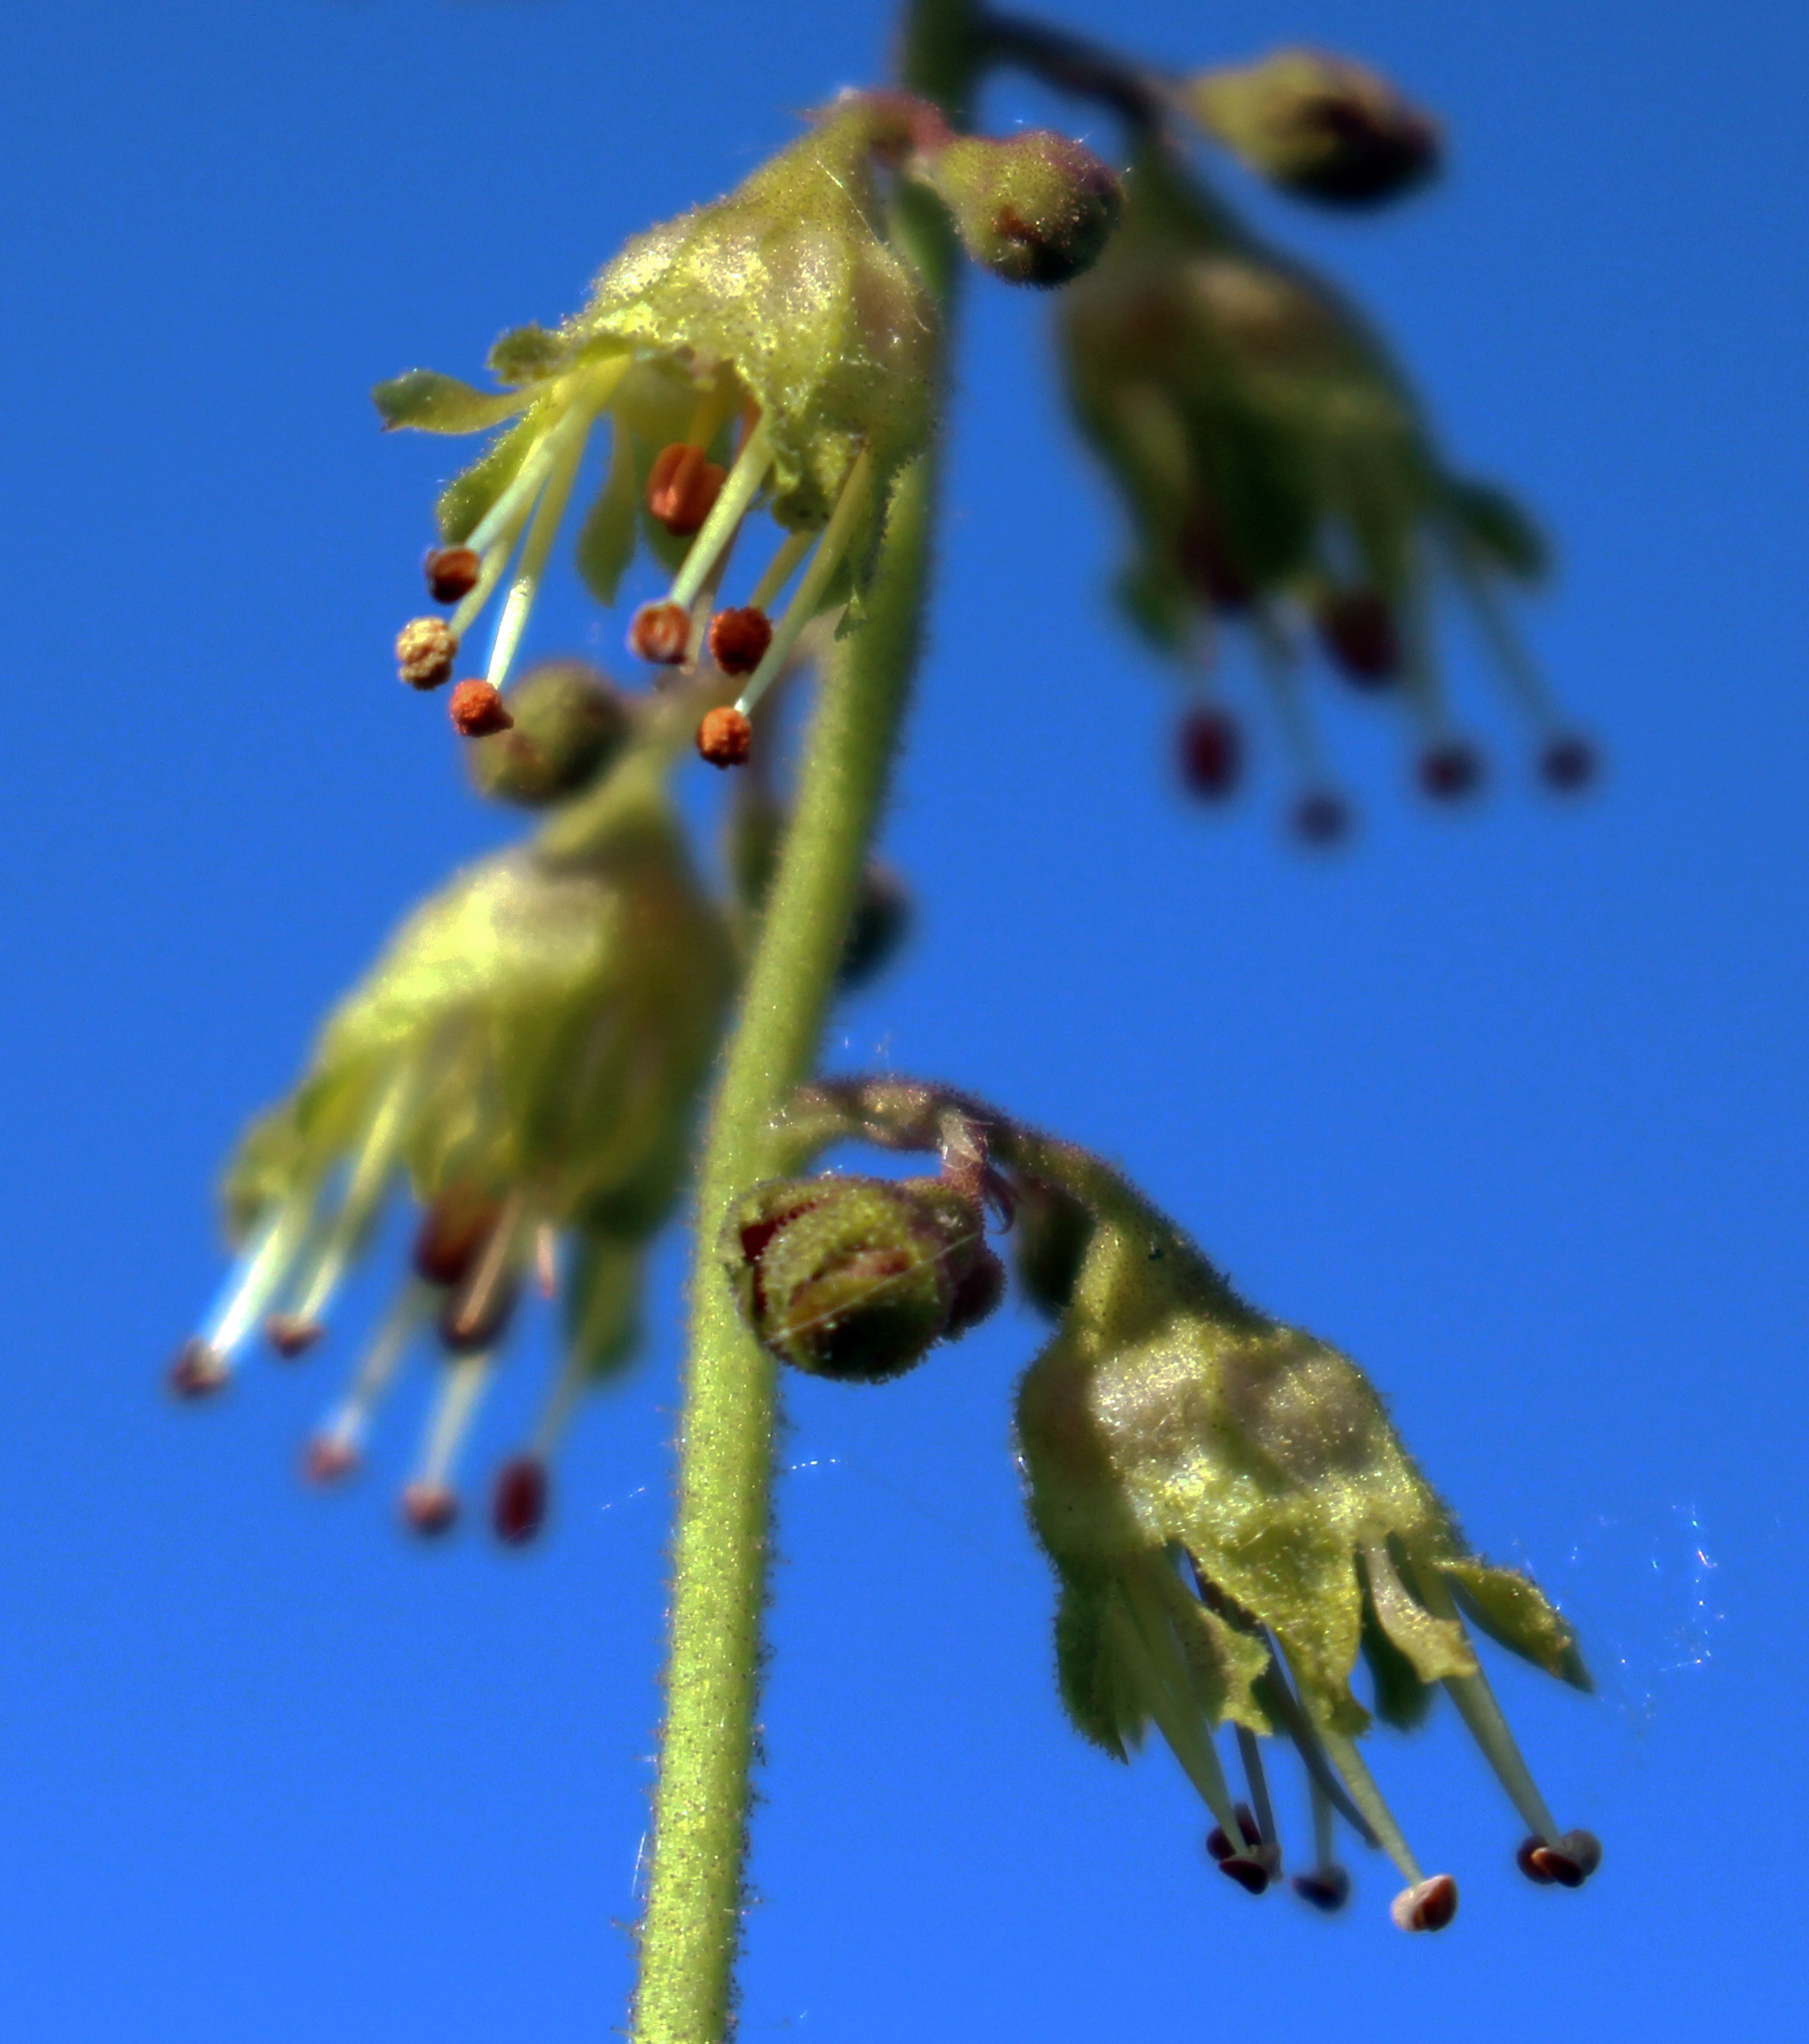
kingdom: Plantae
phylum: Tracheophyta
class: Magnoliopsida
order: Saxifragales
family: Saxifragaceae
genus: Heuchera
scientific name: Heuchera richardsonii
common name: Richardson's alumroot
